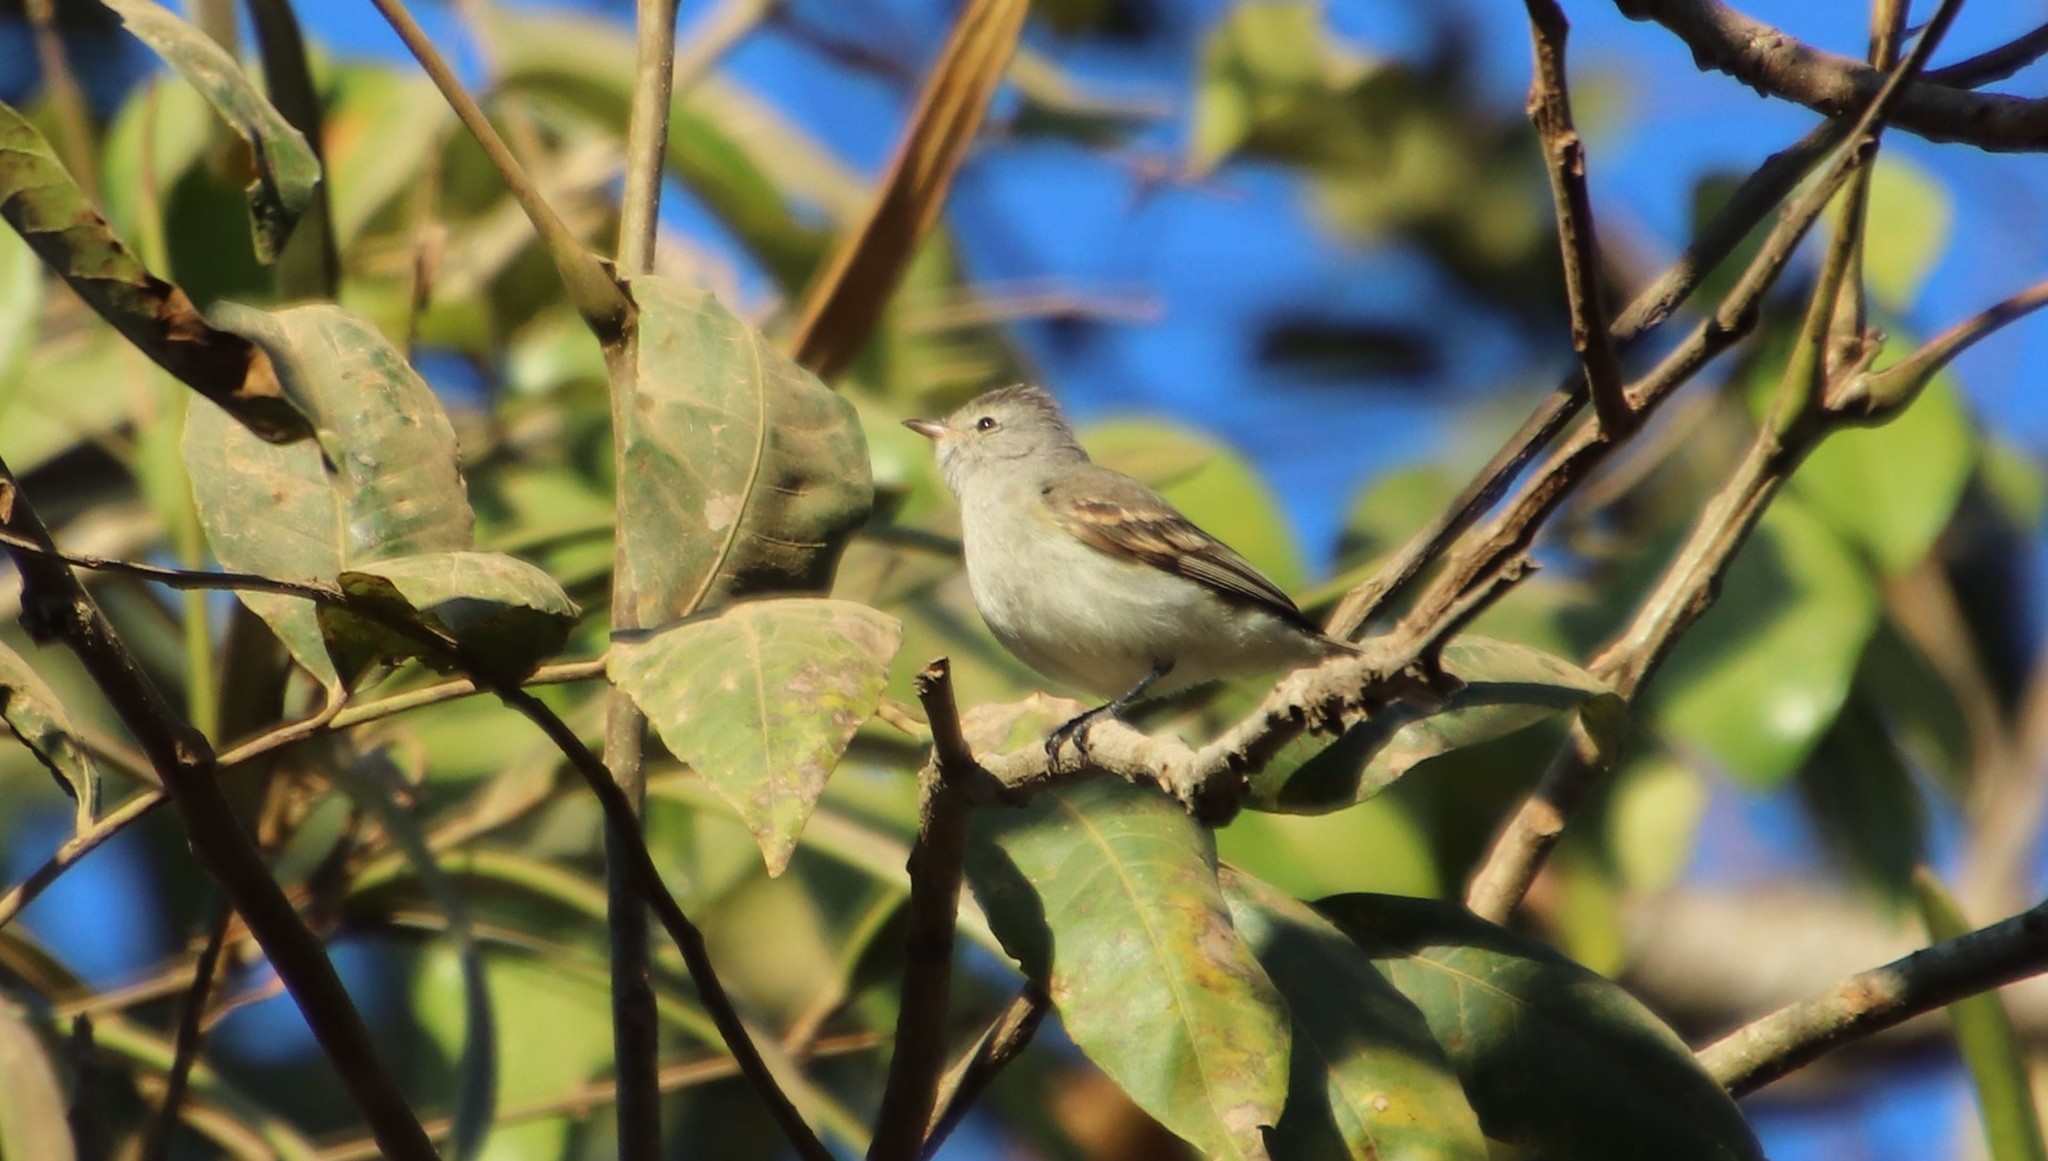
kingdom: Animalia
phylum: Chordata
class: Aves
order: Passeriformes
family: Tyrannidae
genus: Camptostoma
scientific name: Camptostoma obsoletum
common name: Southern beardless-tyrannulet
